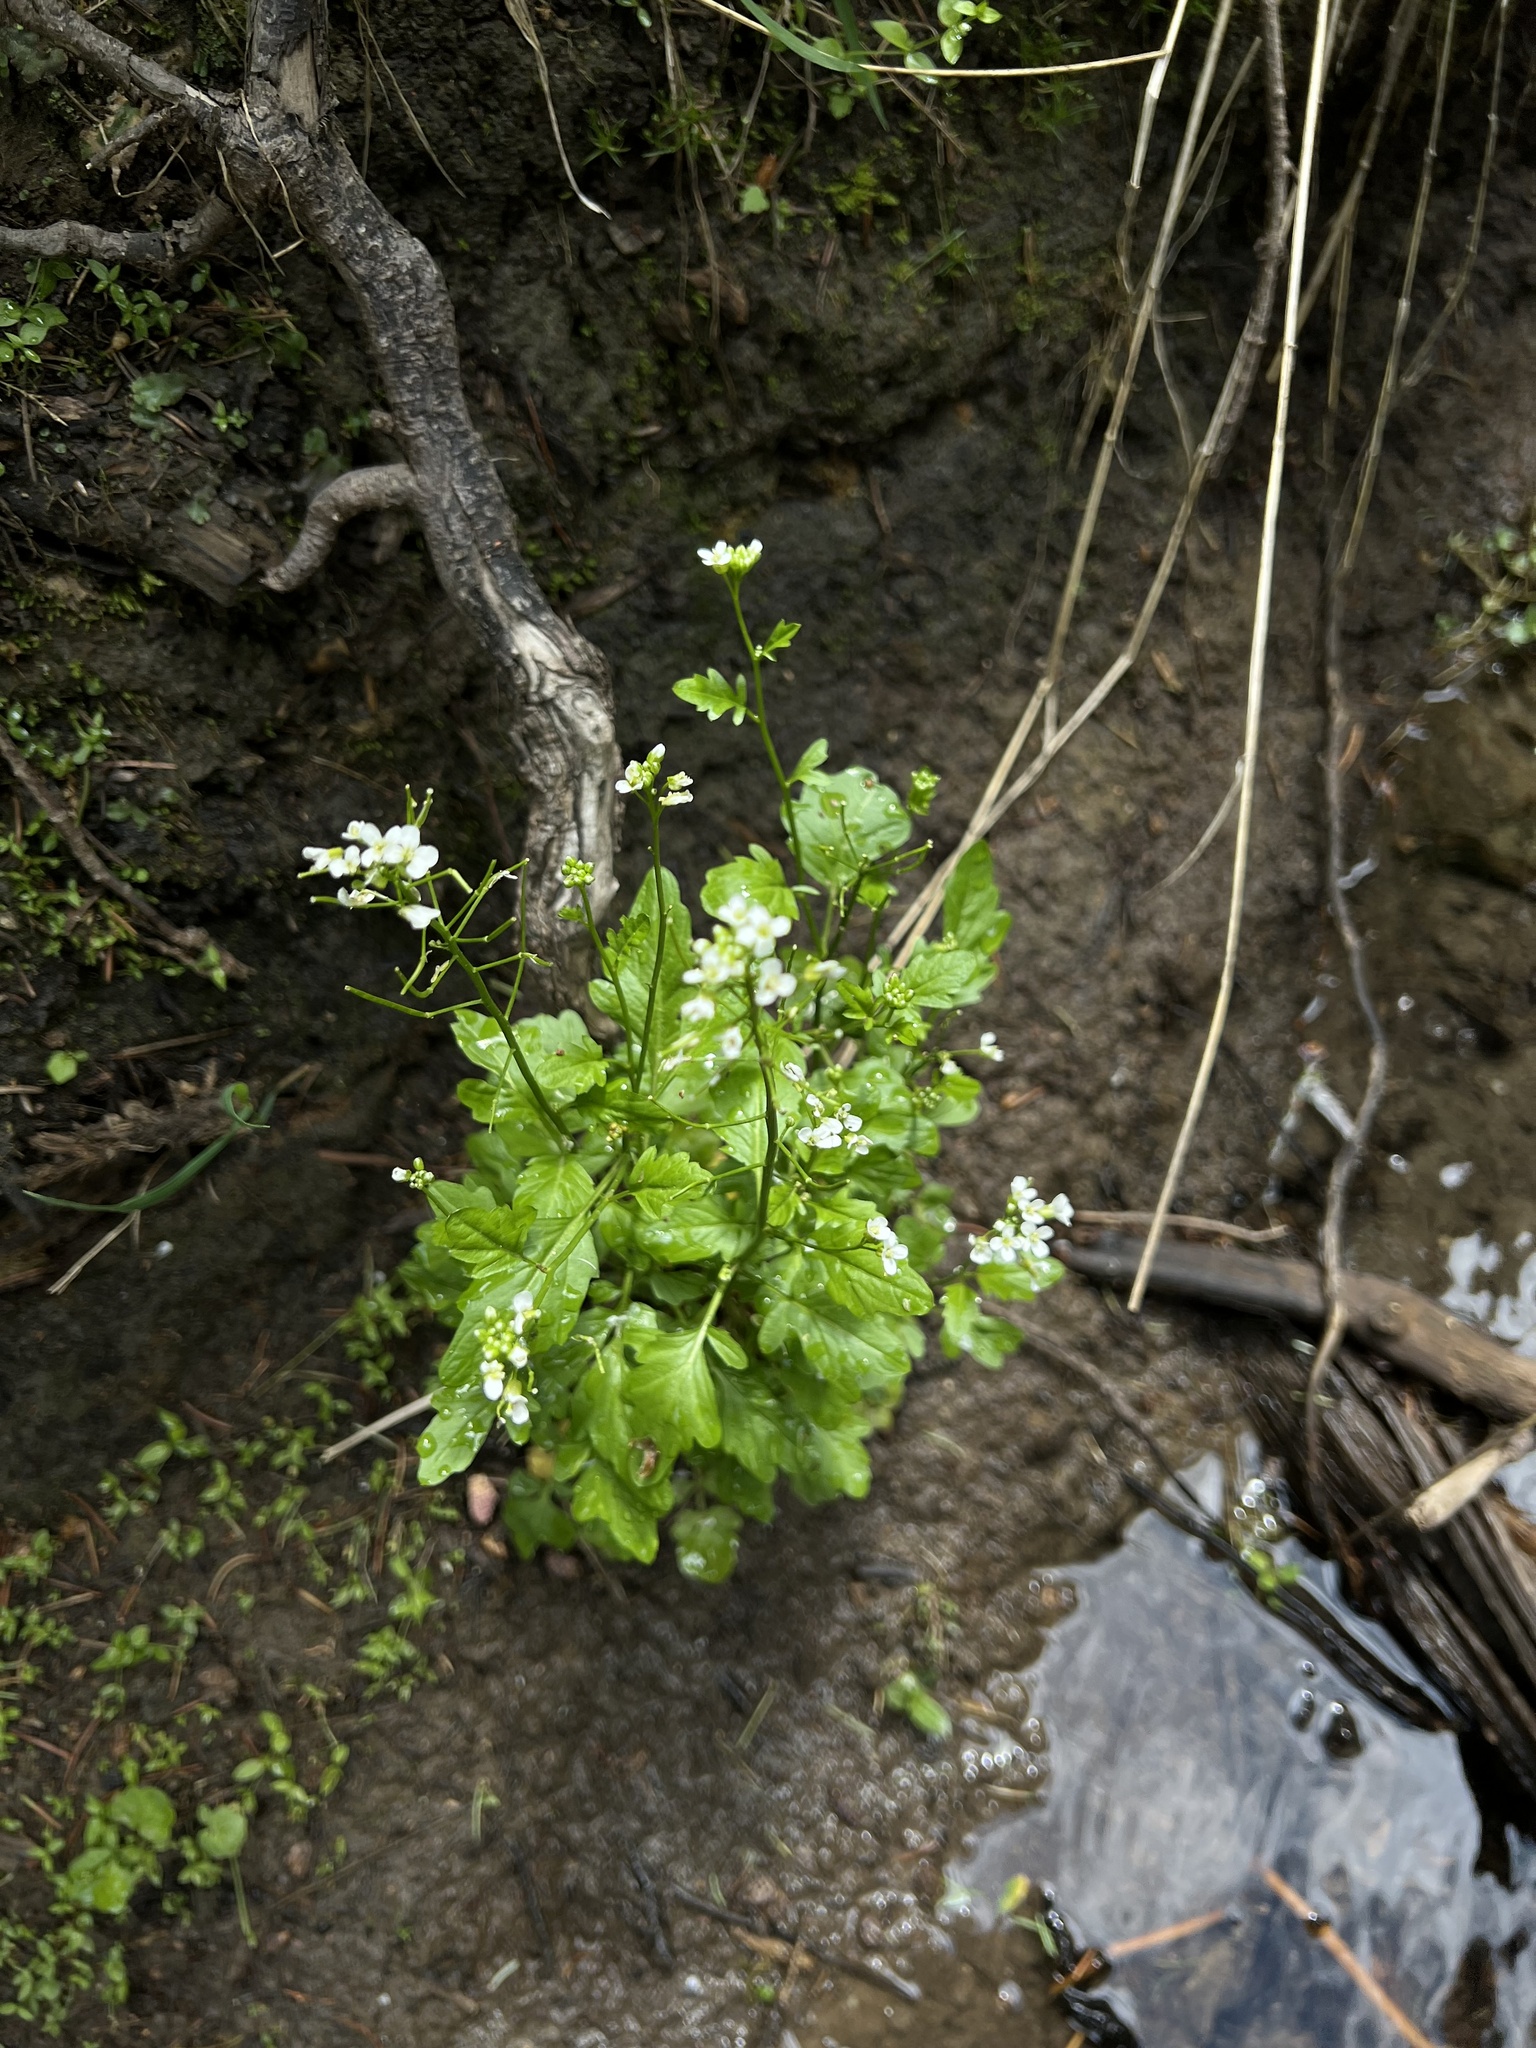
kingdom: Plantae
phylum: Tracheophyta
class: Magnoliopsida
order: Brassicales
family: Brassicaceae
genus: Cardamine
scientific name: Cardamine breweri
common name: Brewer's bittercress
